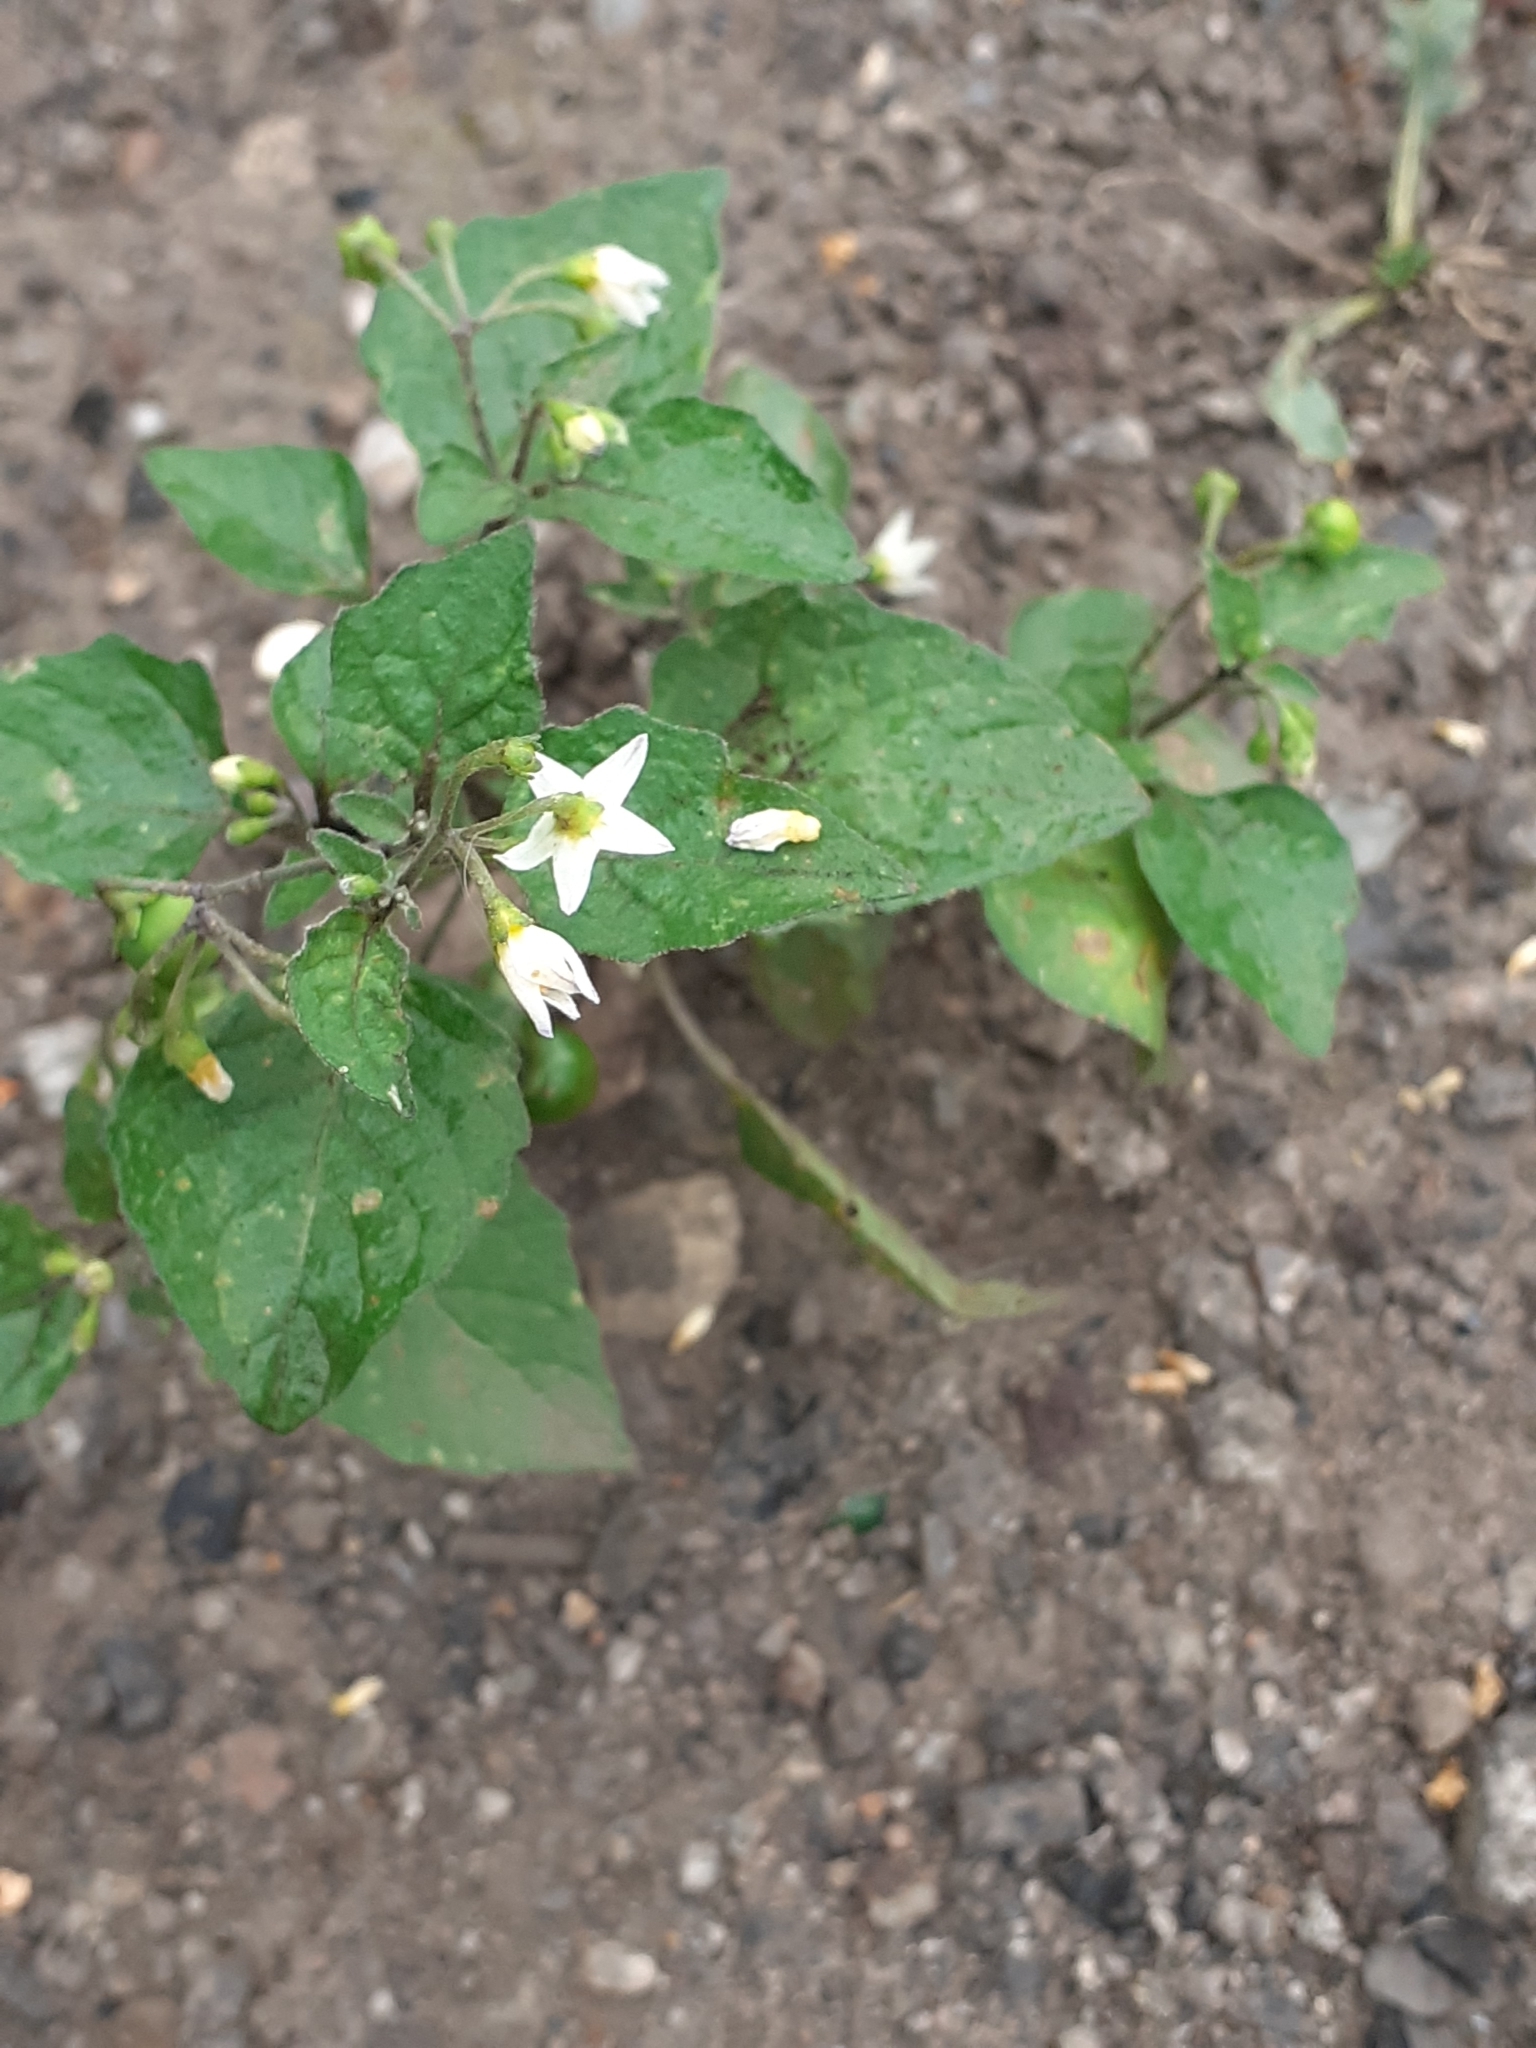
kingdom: Plantae
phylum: Tracheophyta
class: Magnoliopsida
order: Solanales
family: Solanaceae
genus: Solanum
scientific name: Solanum nigrum
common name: Black nightshade
